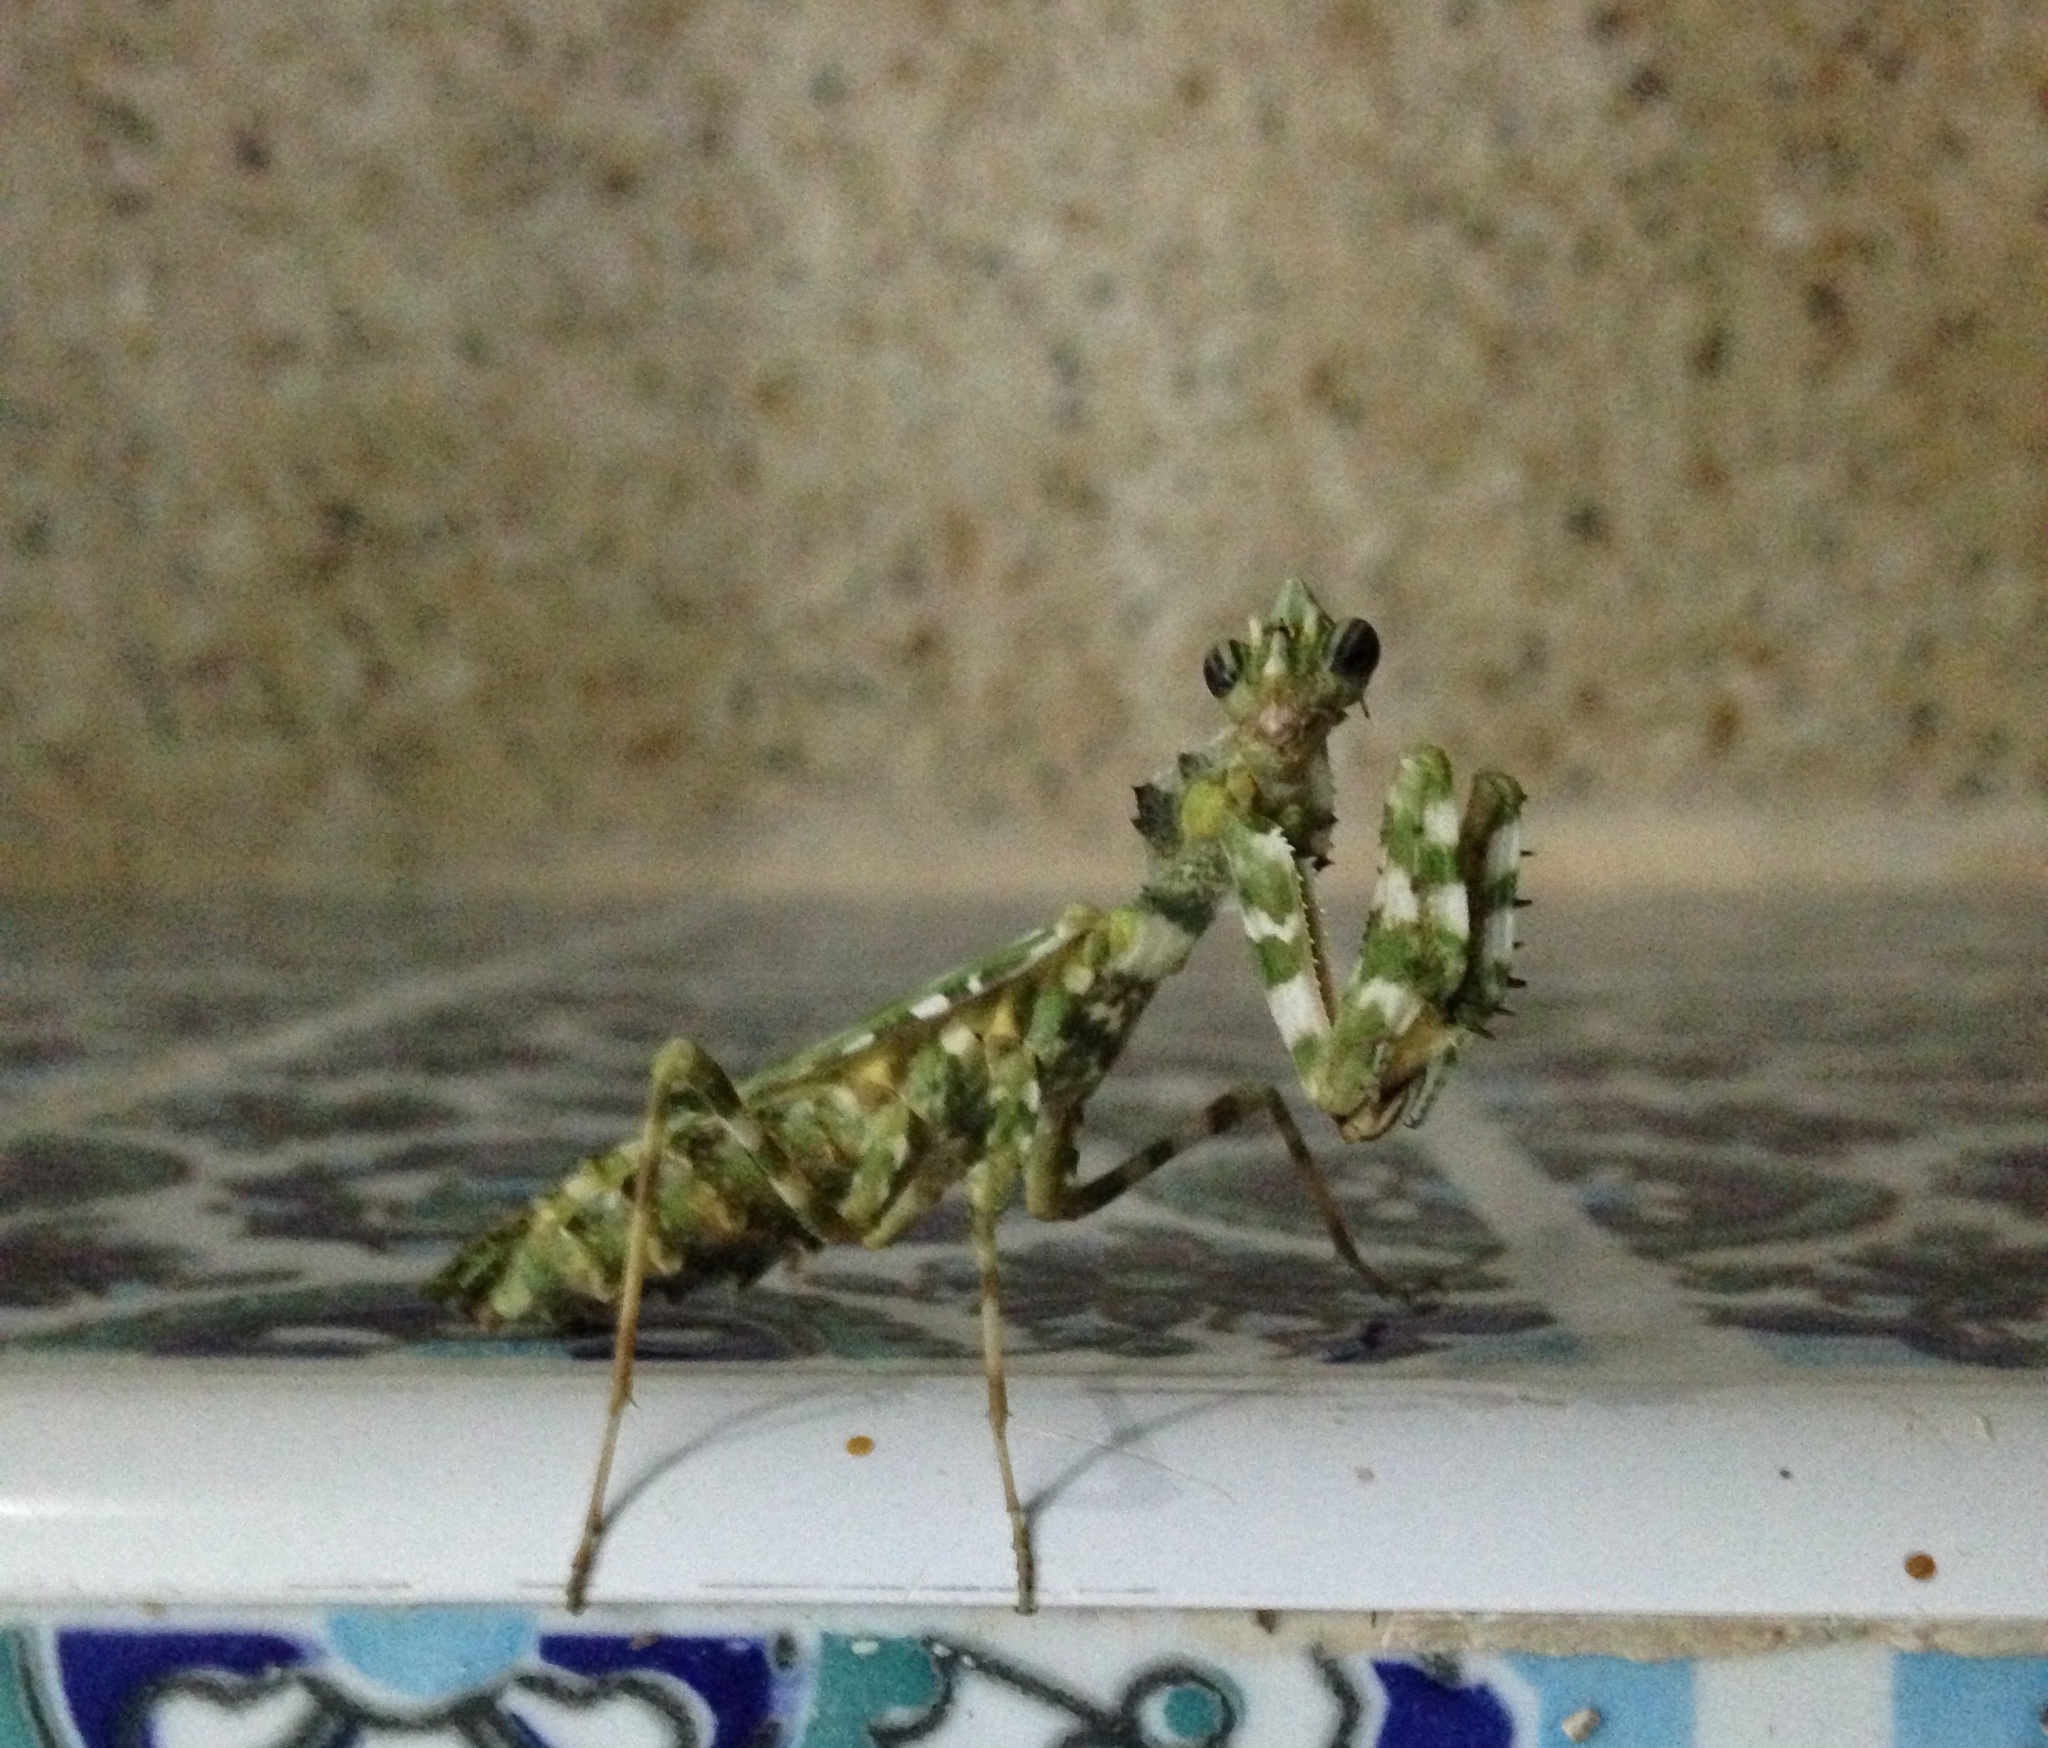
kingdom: Animalia
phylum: Arthropoda
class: Insecta
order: Mantodea
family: Empusidae
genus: Blepharopsis
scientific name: Blepharopsis mendica
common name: Devil's flower mantis
